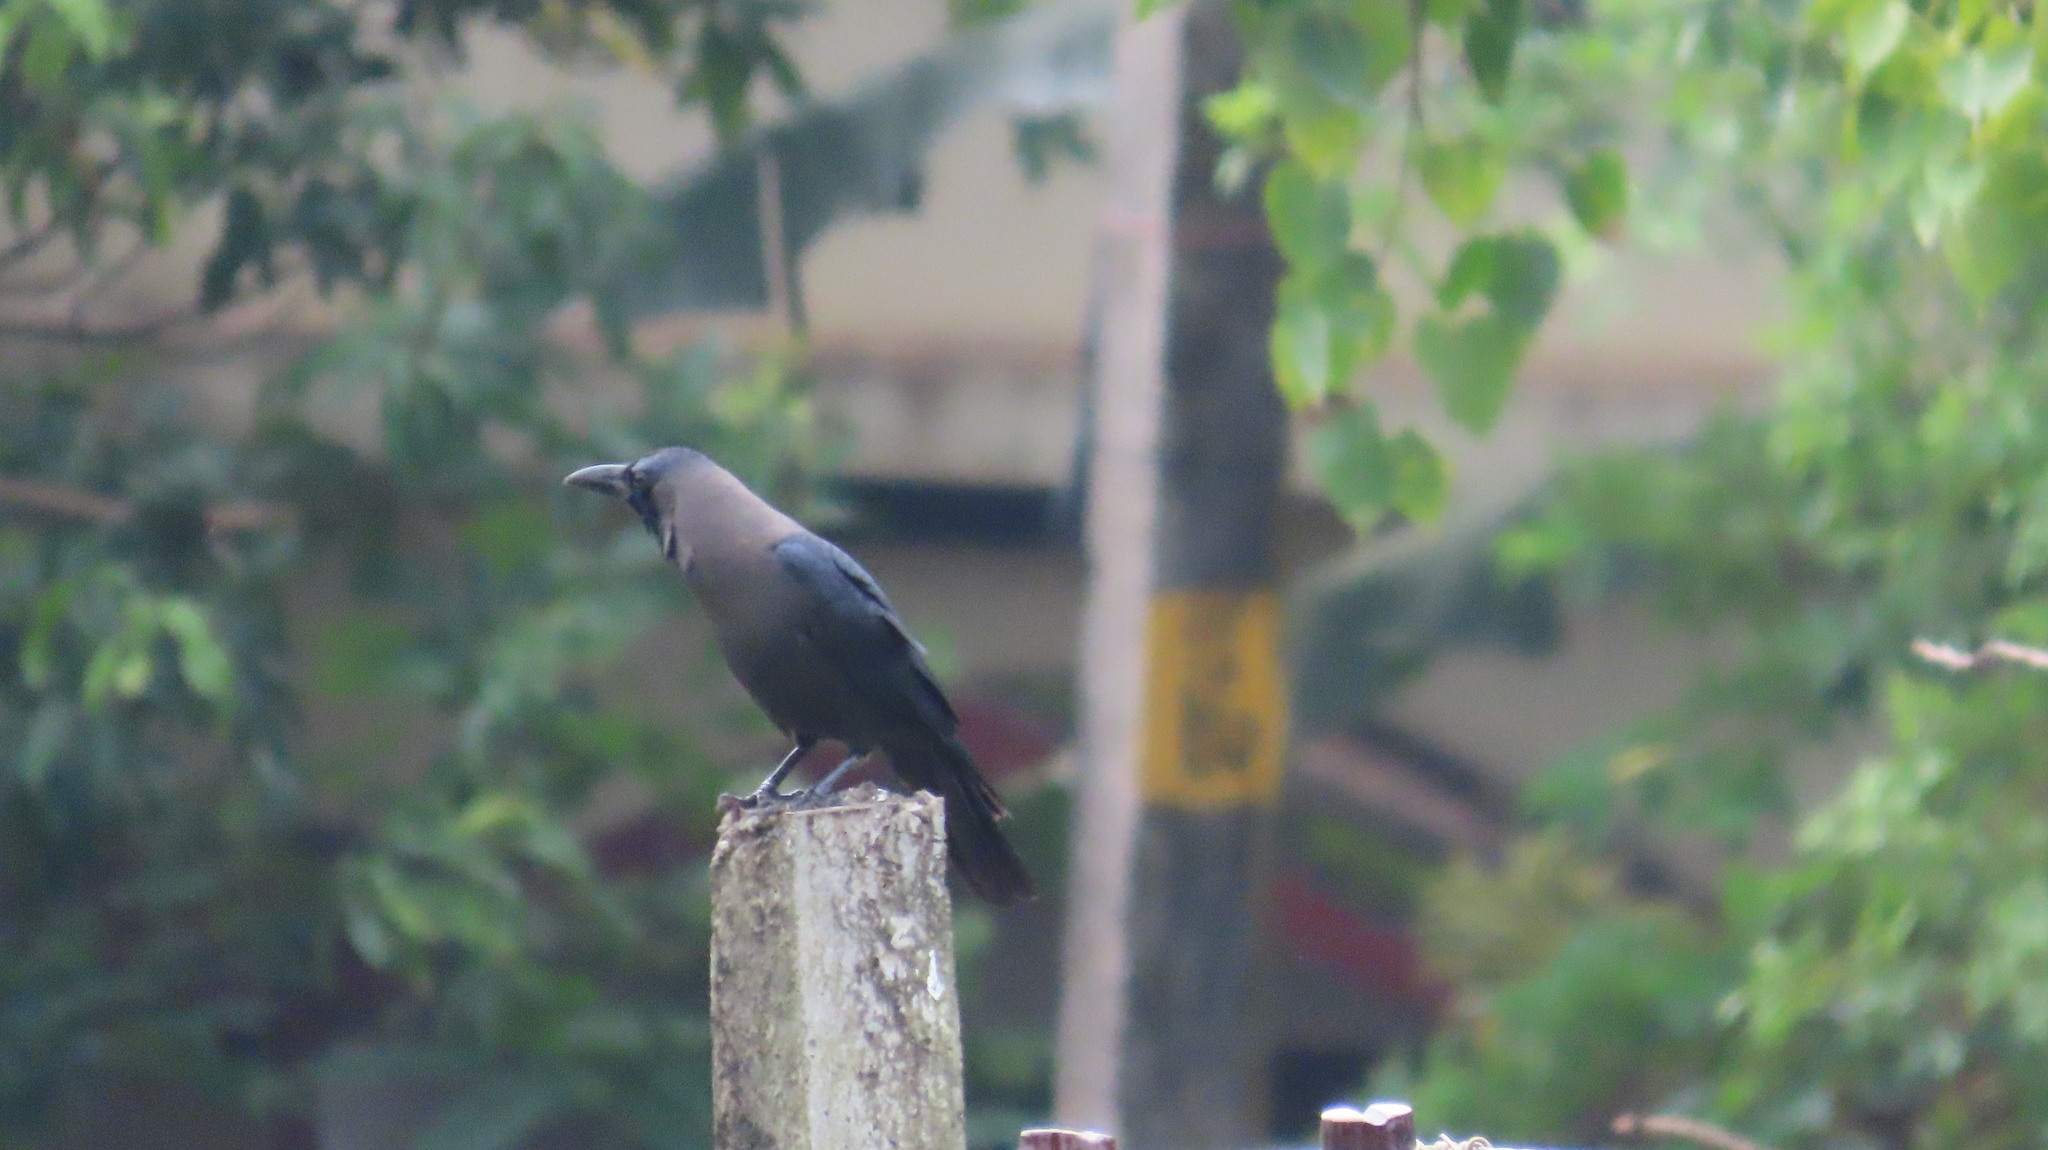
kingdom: Animalia
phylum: Chordata
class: Aves
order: Passeriformes
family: Corvidae
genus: Corvus
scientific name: Corvus splendens
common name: House crow
